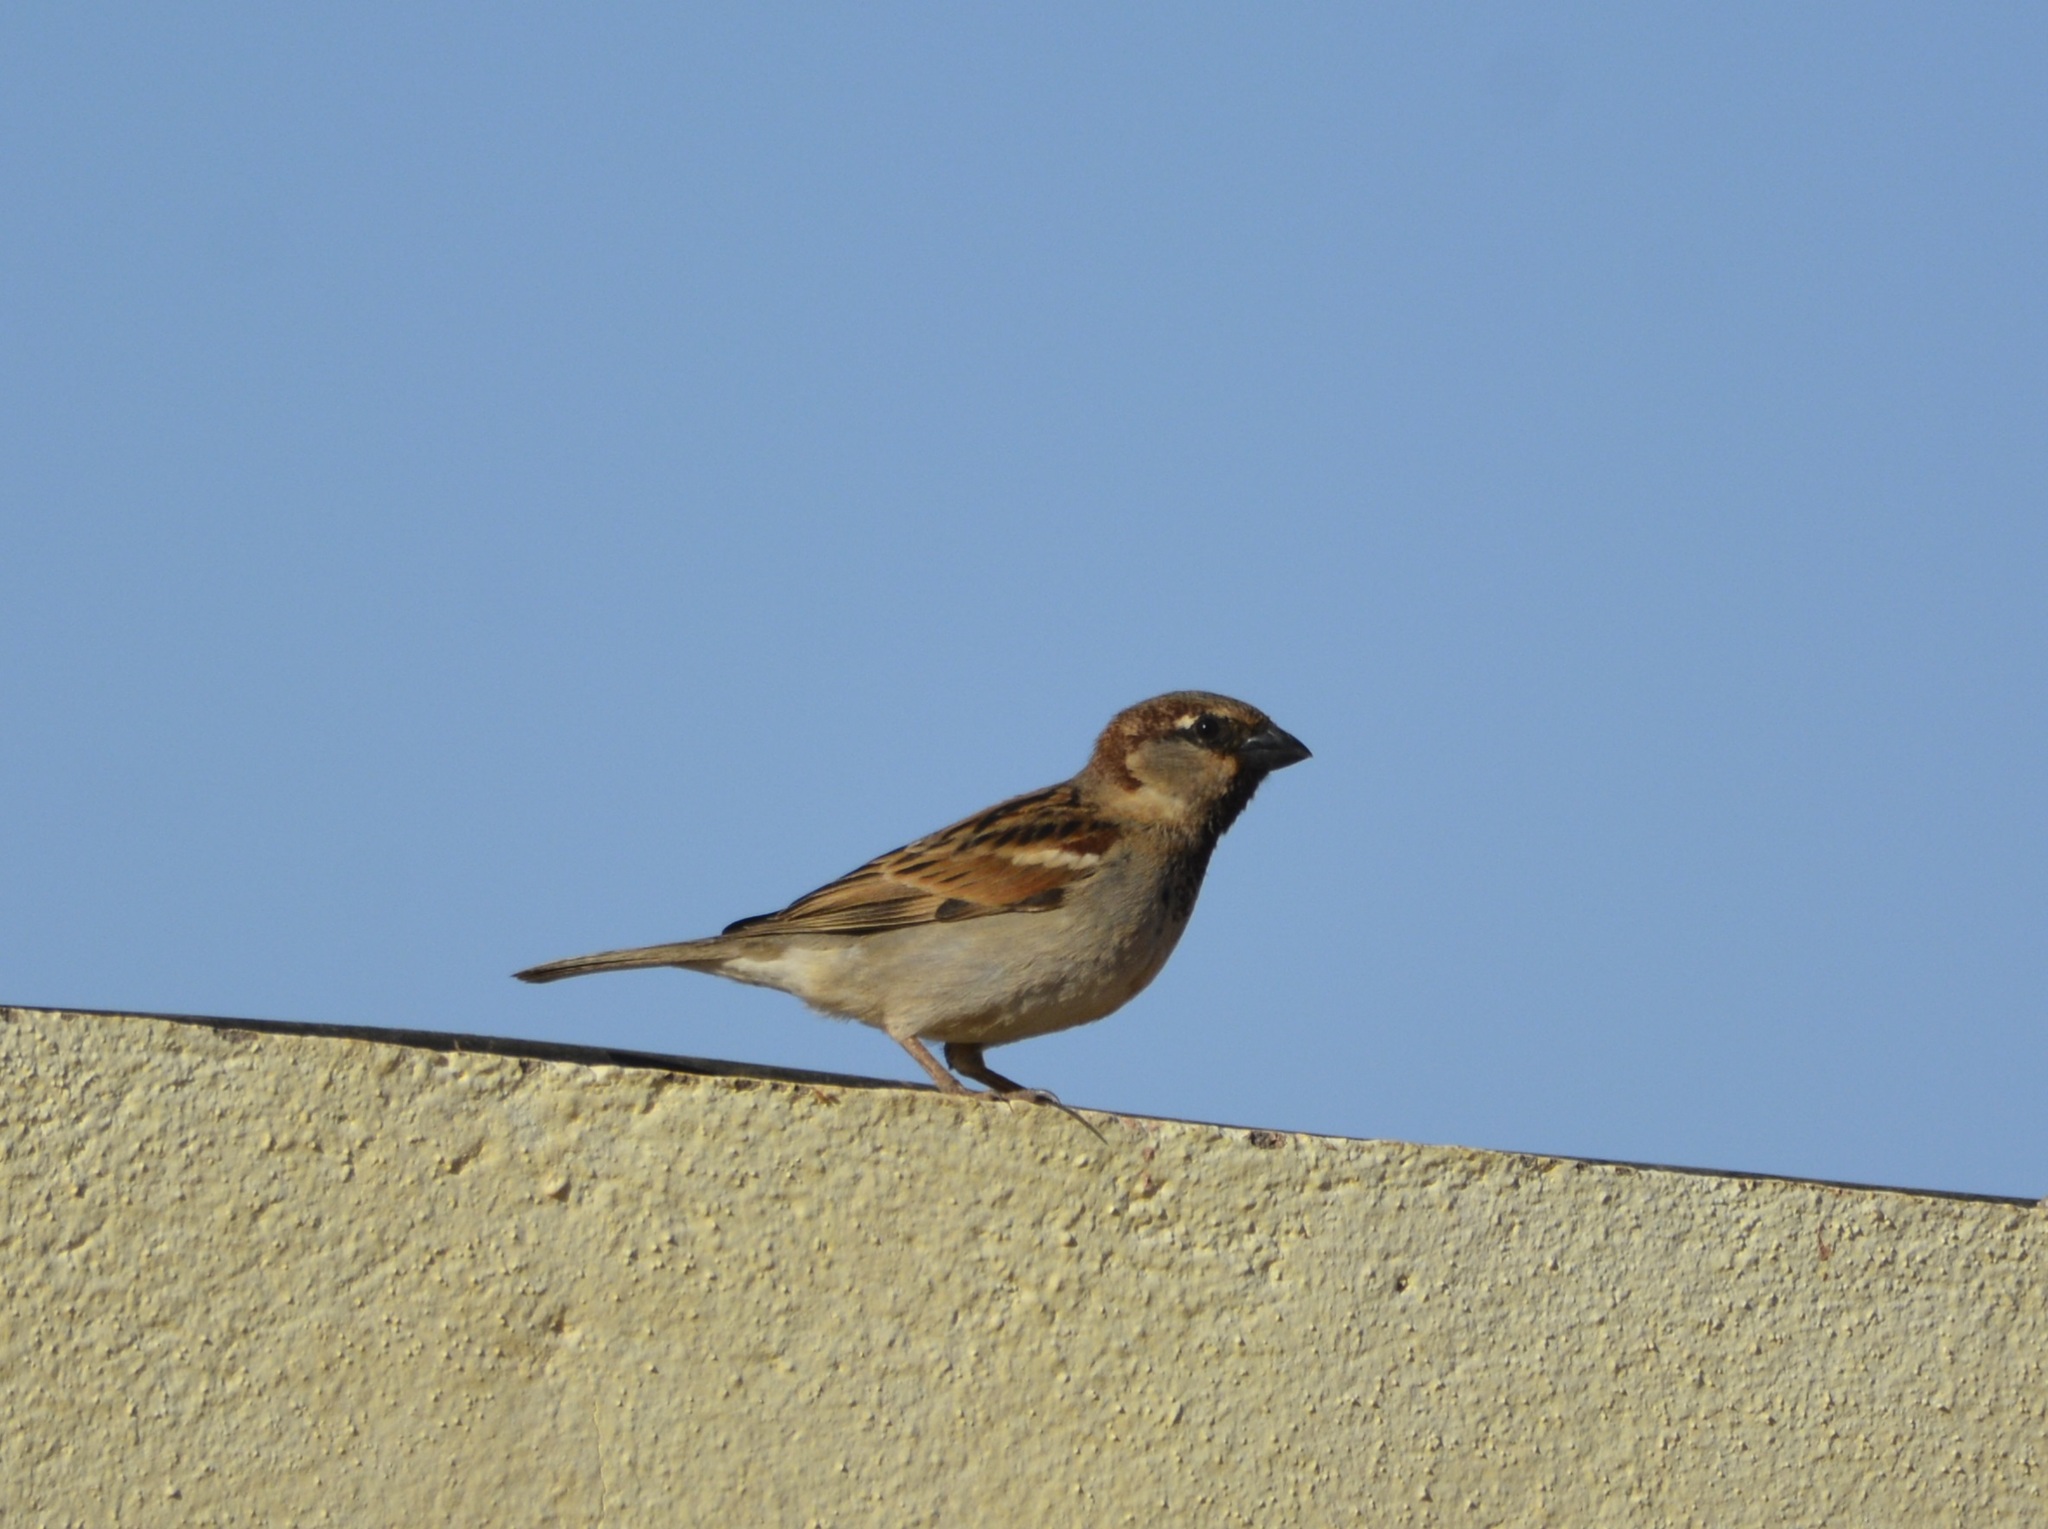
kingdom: Animalia
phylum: Chordata
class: Aves
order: Passeriformes
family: Passeridae
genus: Passer
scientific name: Passer domesticus
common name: House sparrow
